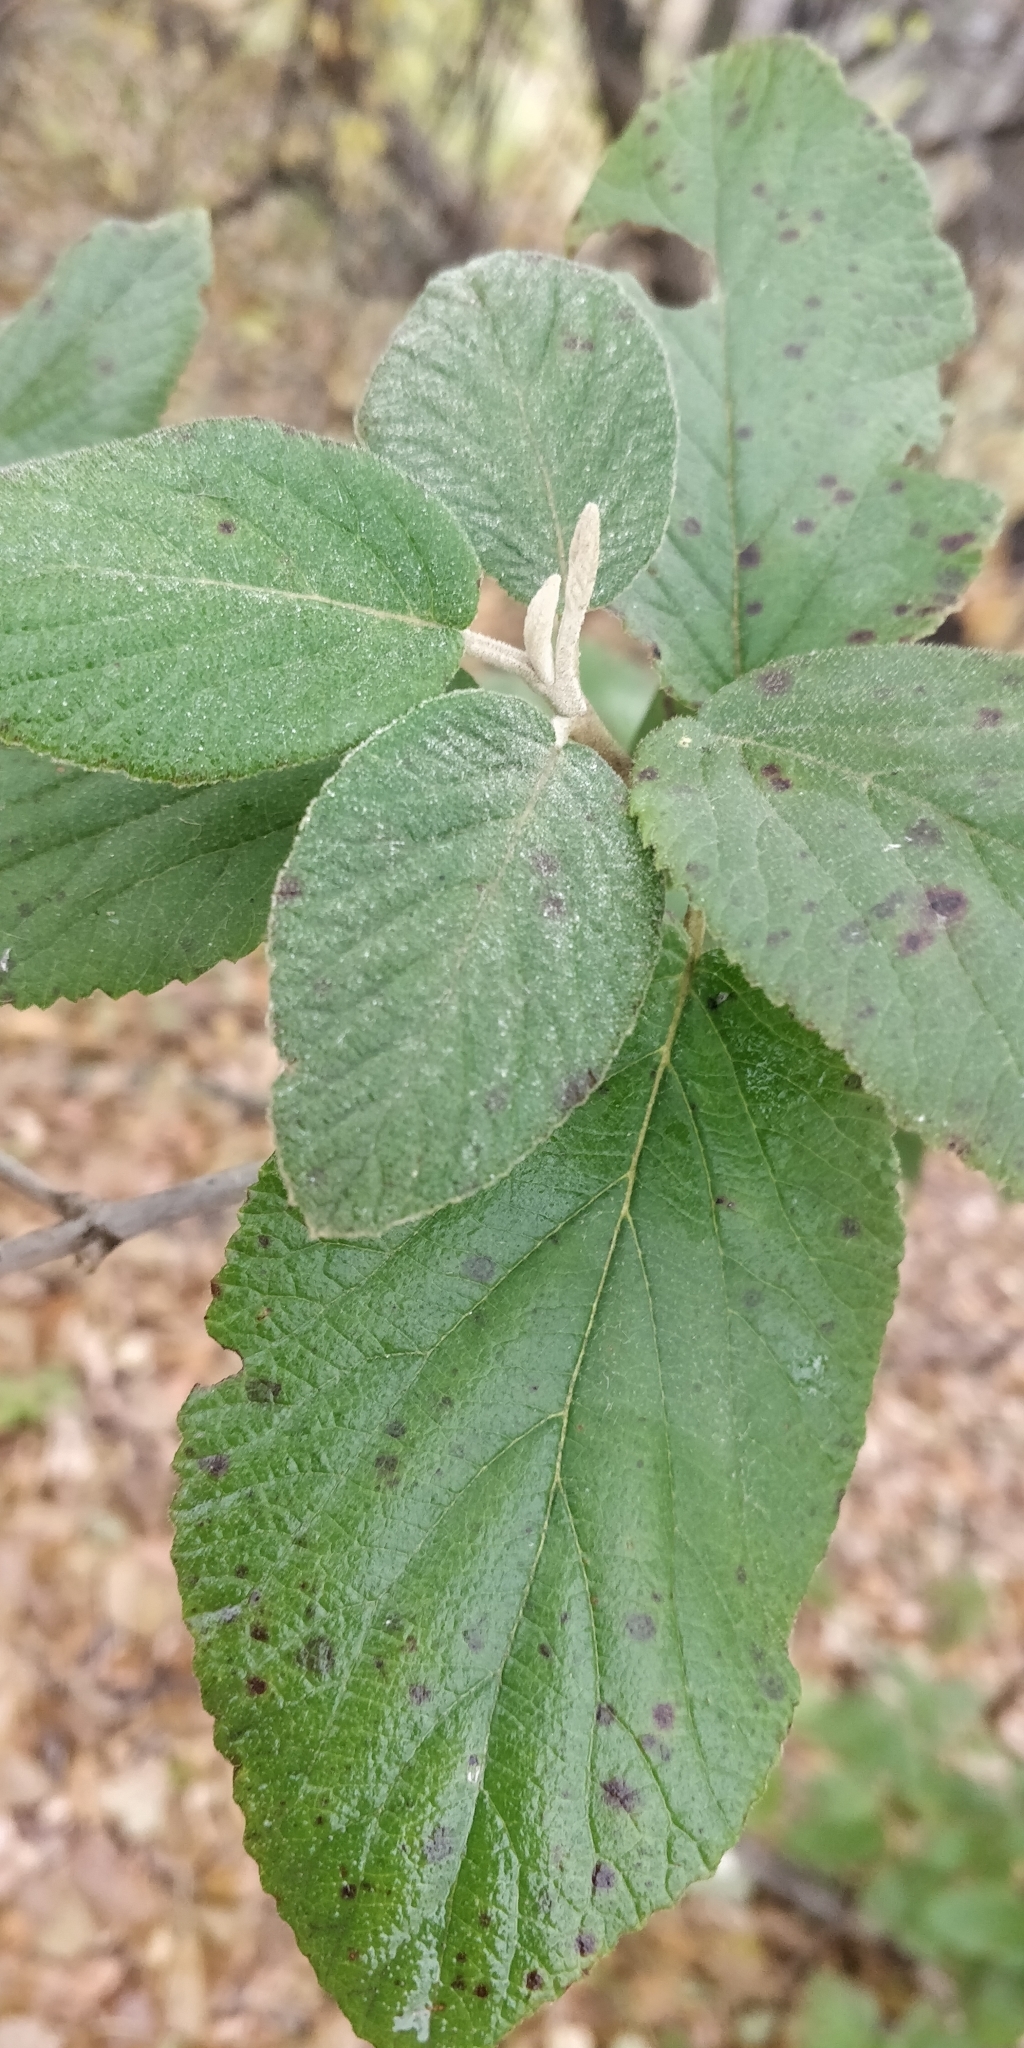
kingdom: Plantae
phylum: Tracheophyta
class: Magnoliopsida
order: Dipsacales
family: Viburnaceae
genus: Viburnum
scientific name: Viburnum lantana
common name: Wayfaring tree
